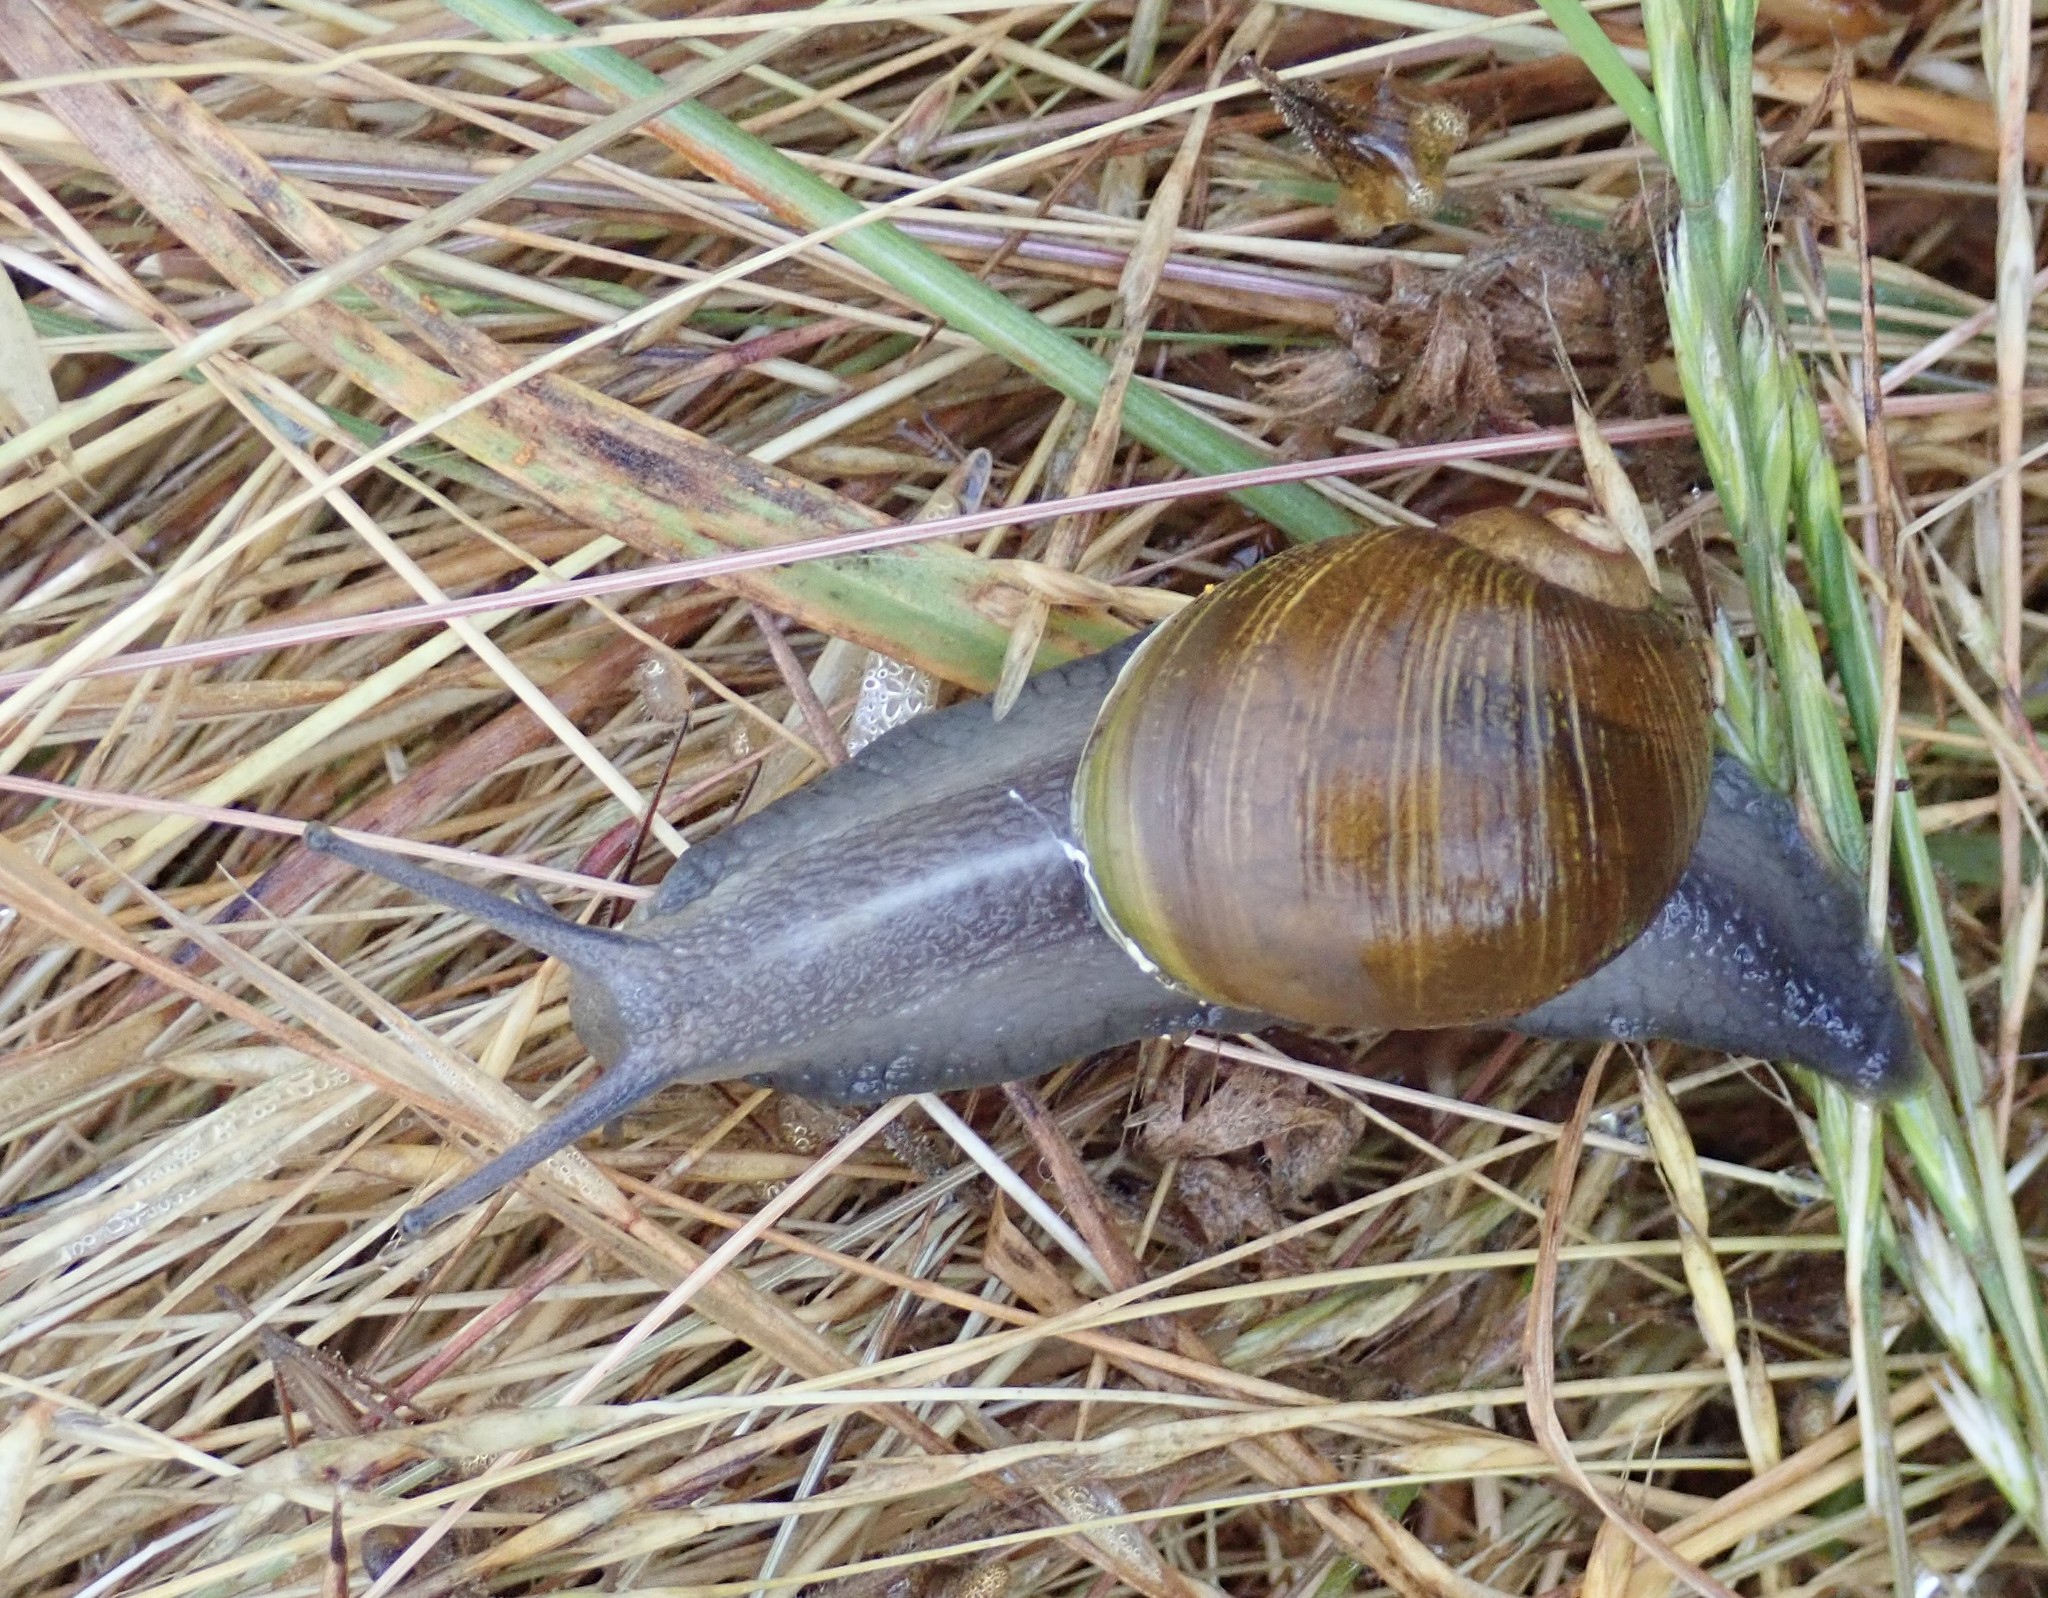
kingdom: Animalia
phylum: Mollusca
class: Gastropoda
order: Stylommatophora
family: Helicidae
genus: Cantareus
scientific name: Cantareus apertus
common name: Green gardensnail
